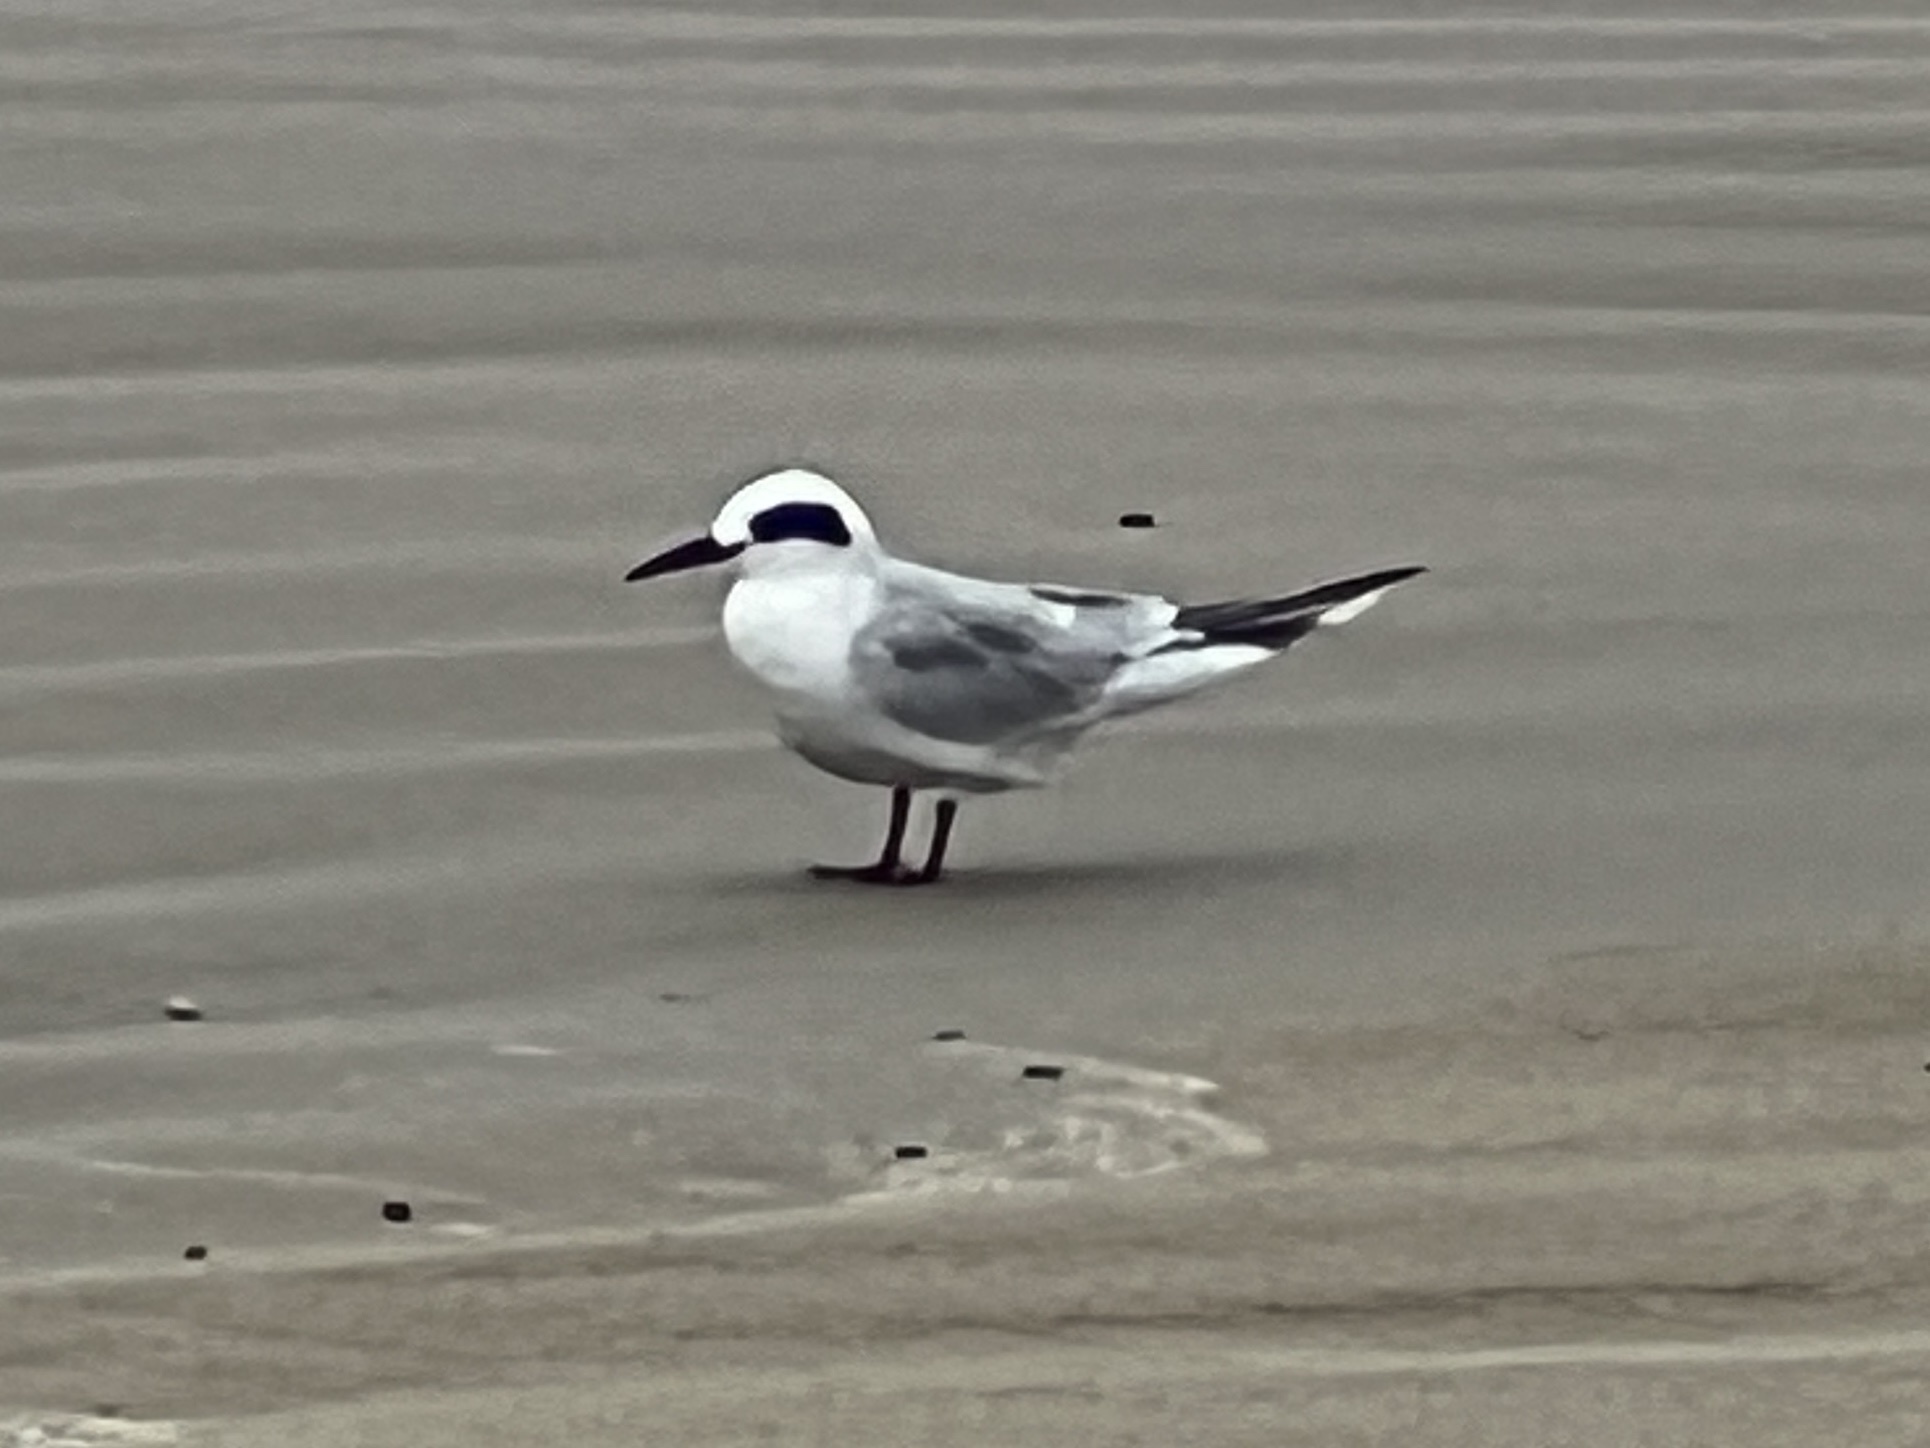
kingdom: Animalia
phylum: Chordata
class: Aves
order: Charadriiformes
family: Laridae
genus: Sterna
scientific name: Sterna forsteri
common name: Forster's tern
